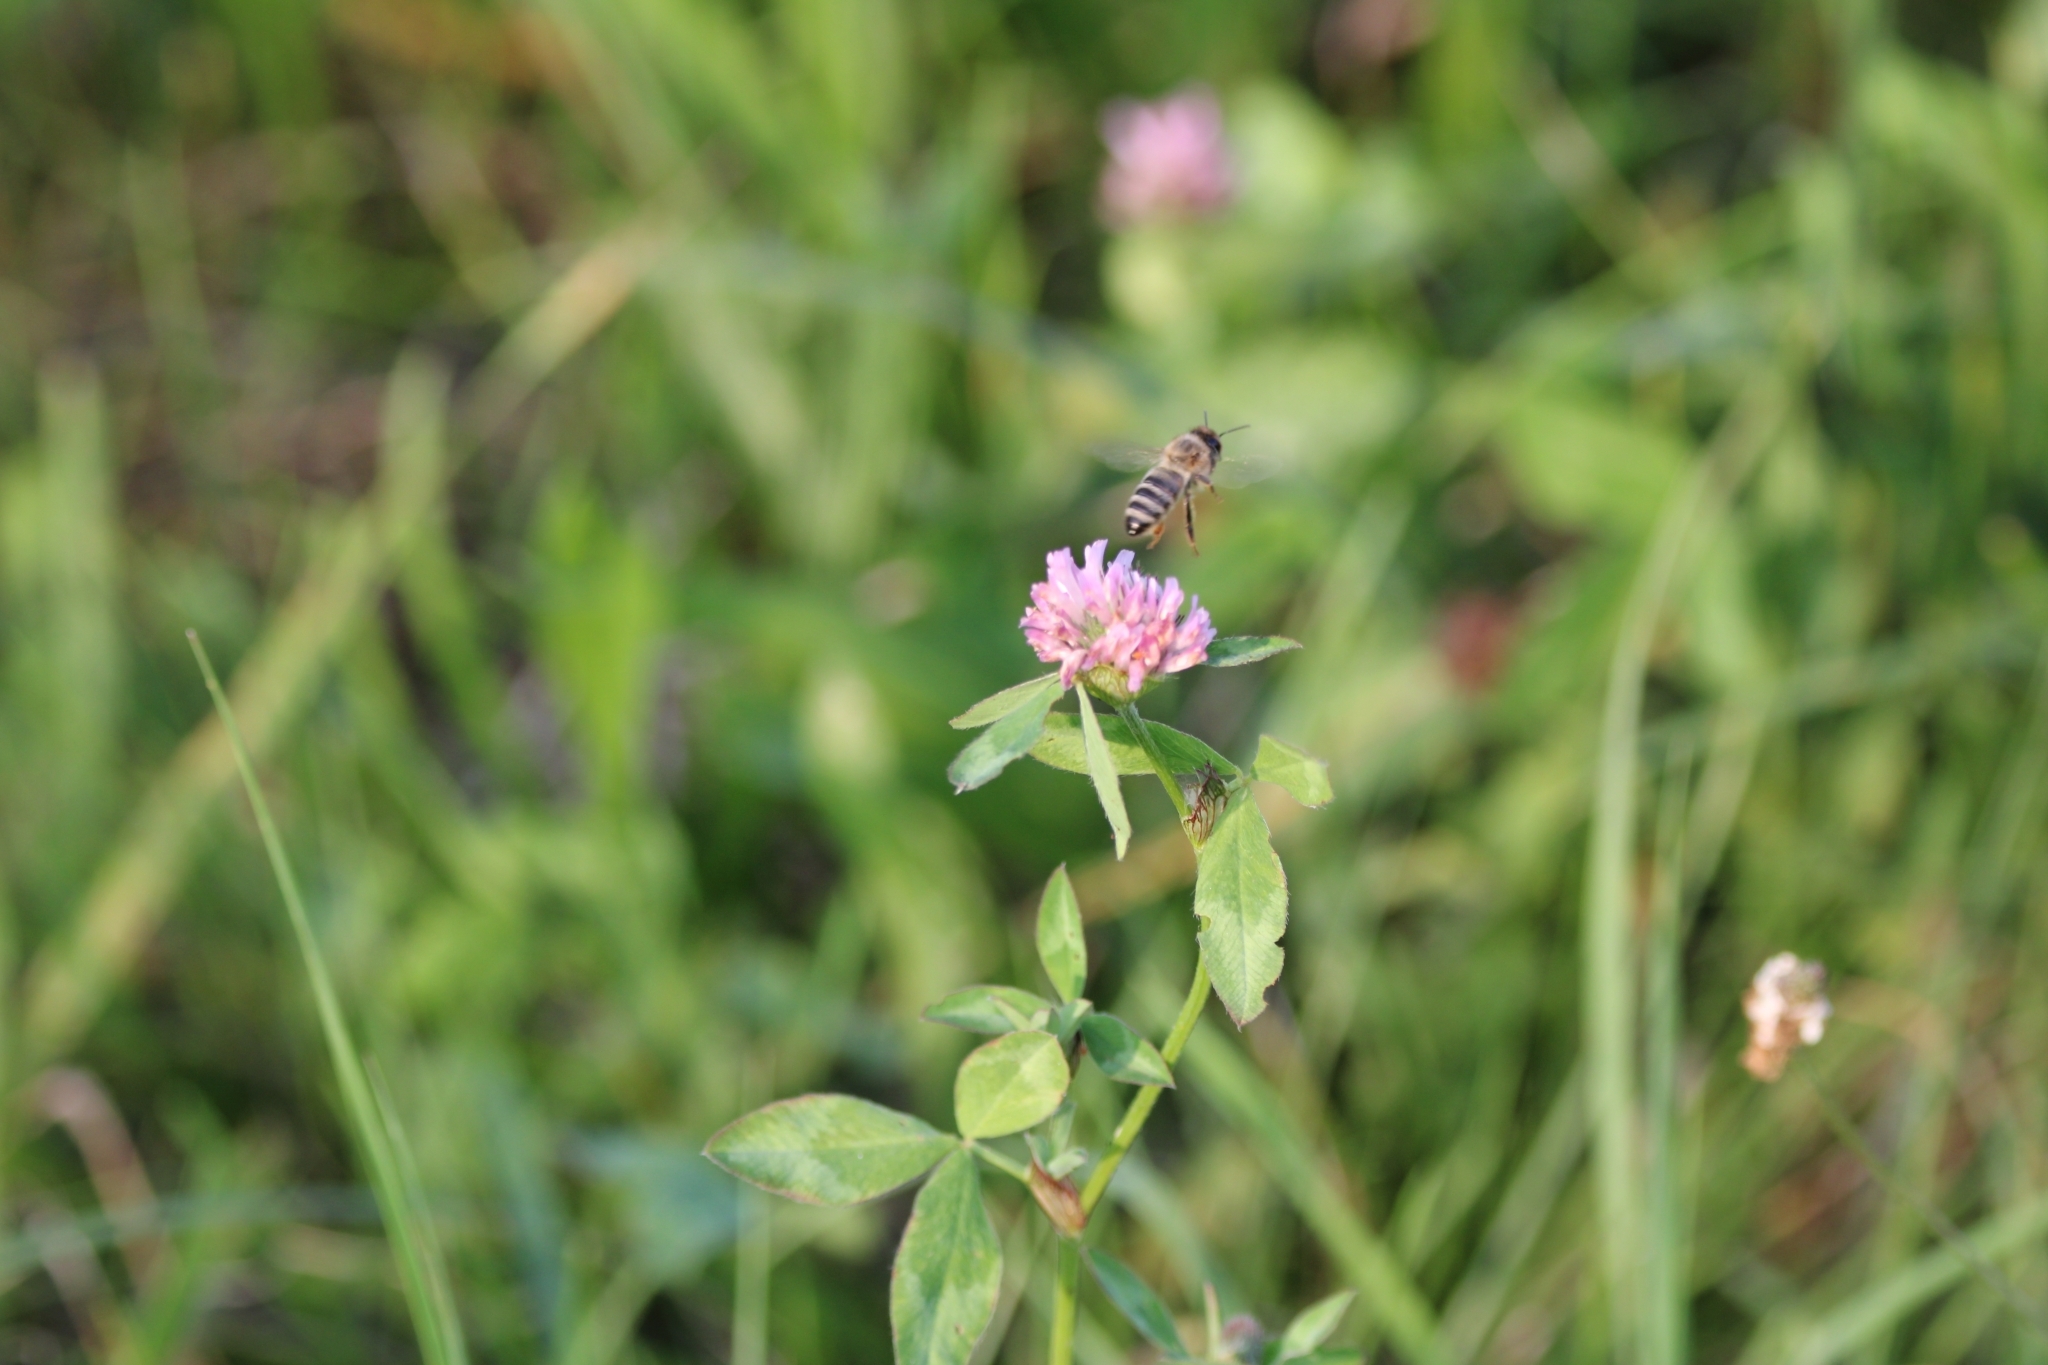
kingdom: Animalia
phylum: Arthropoda
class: Insecta
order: Hymenoptera
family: Apidae
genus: Apis
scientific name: Apis mellifera
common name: Honey bee
